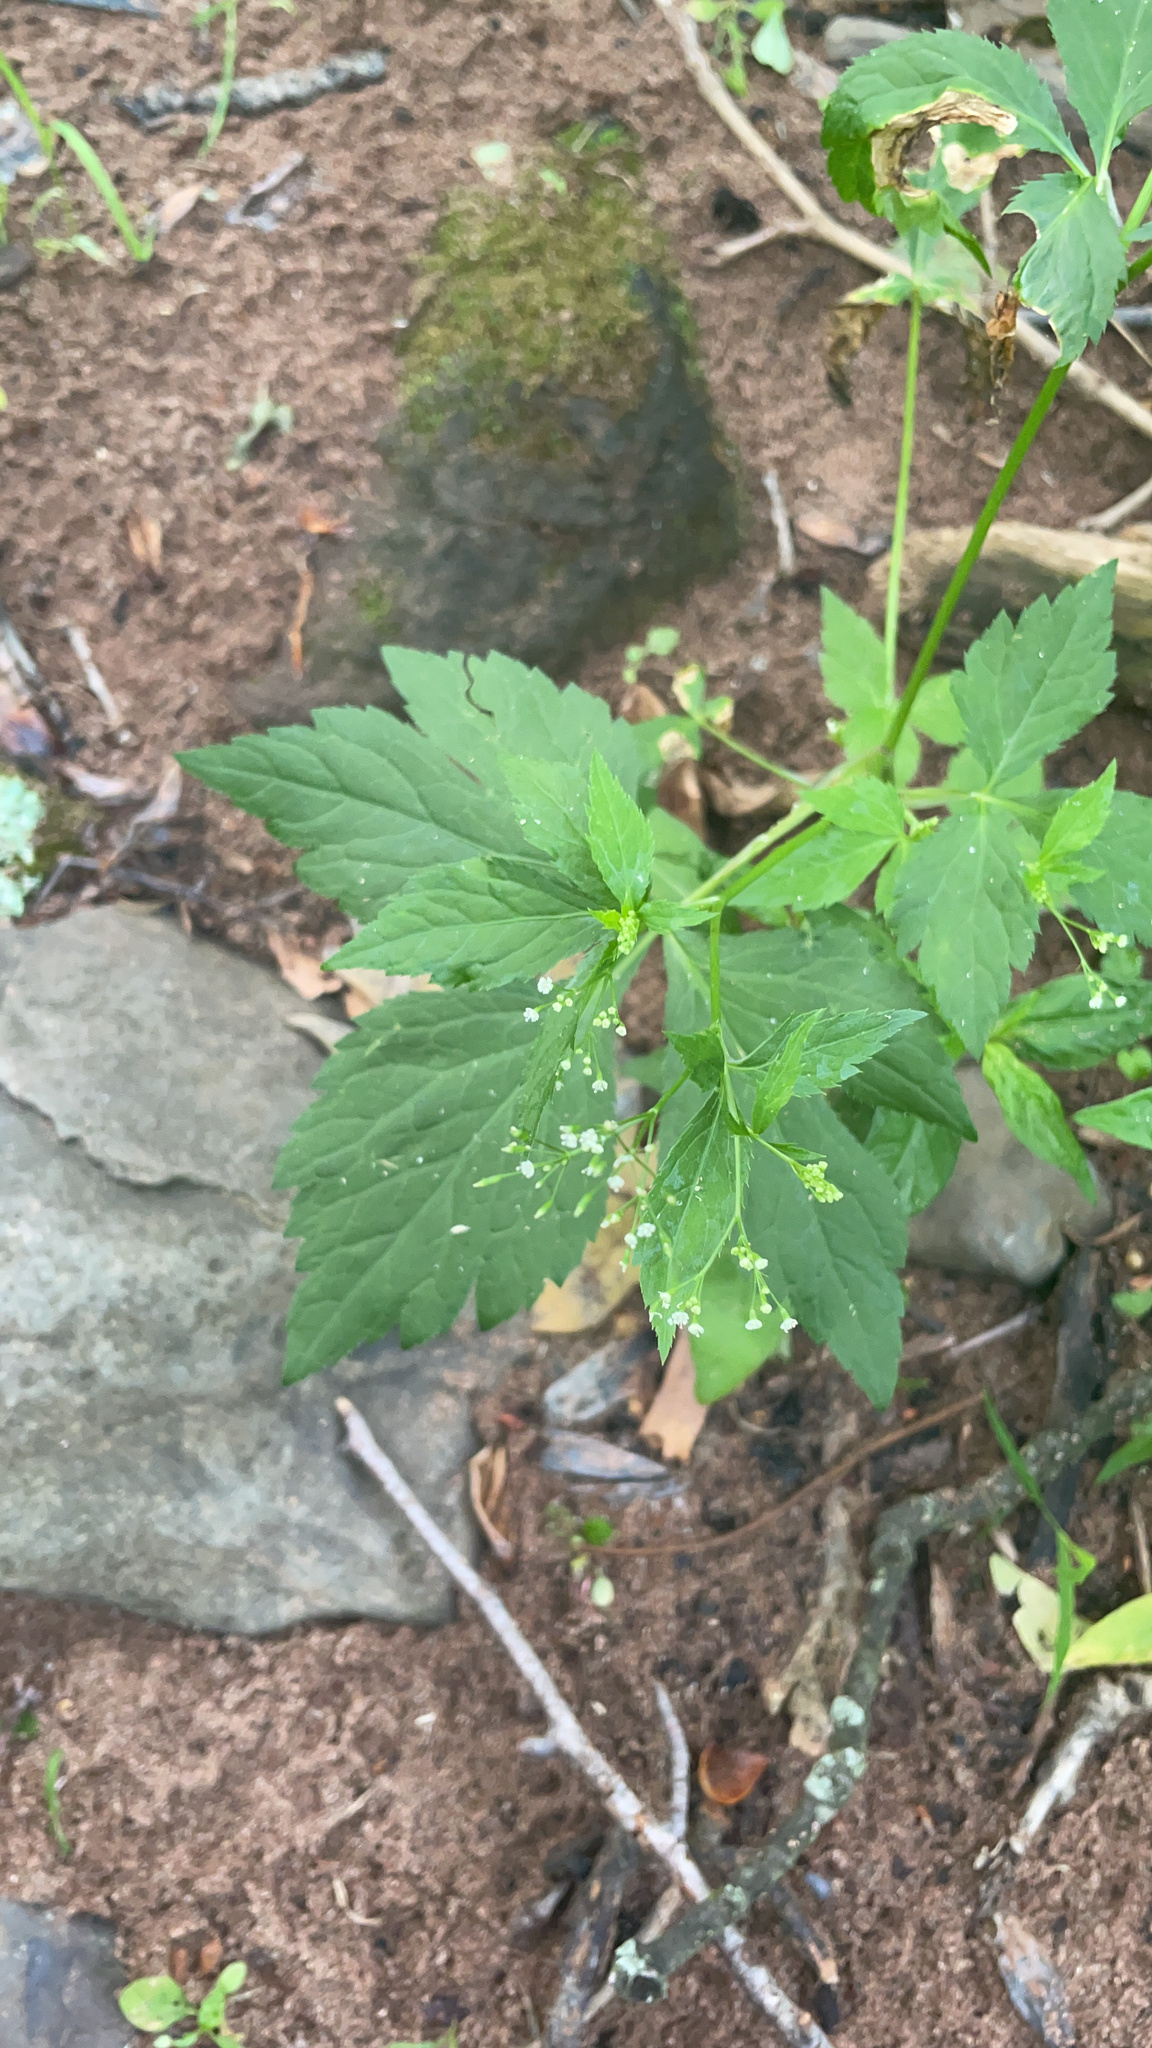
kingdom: Plantae
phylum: Tracheophyta
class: Magnoliopsida
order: Apiales
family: Apiaceae
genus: Cryptotaenia
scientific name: Cryptotaenia canadensis
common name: Honewort
